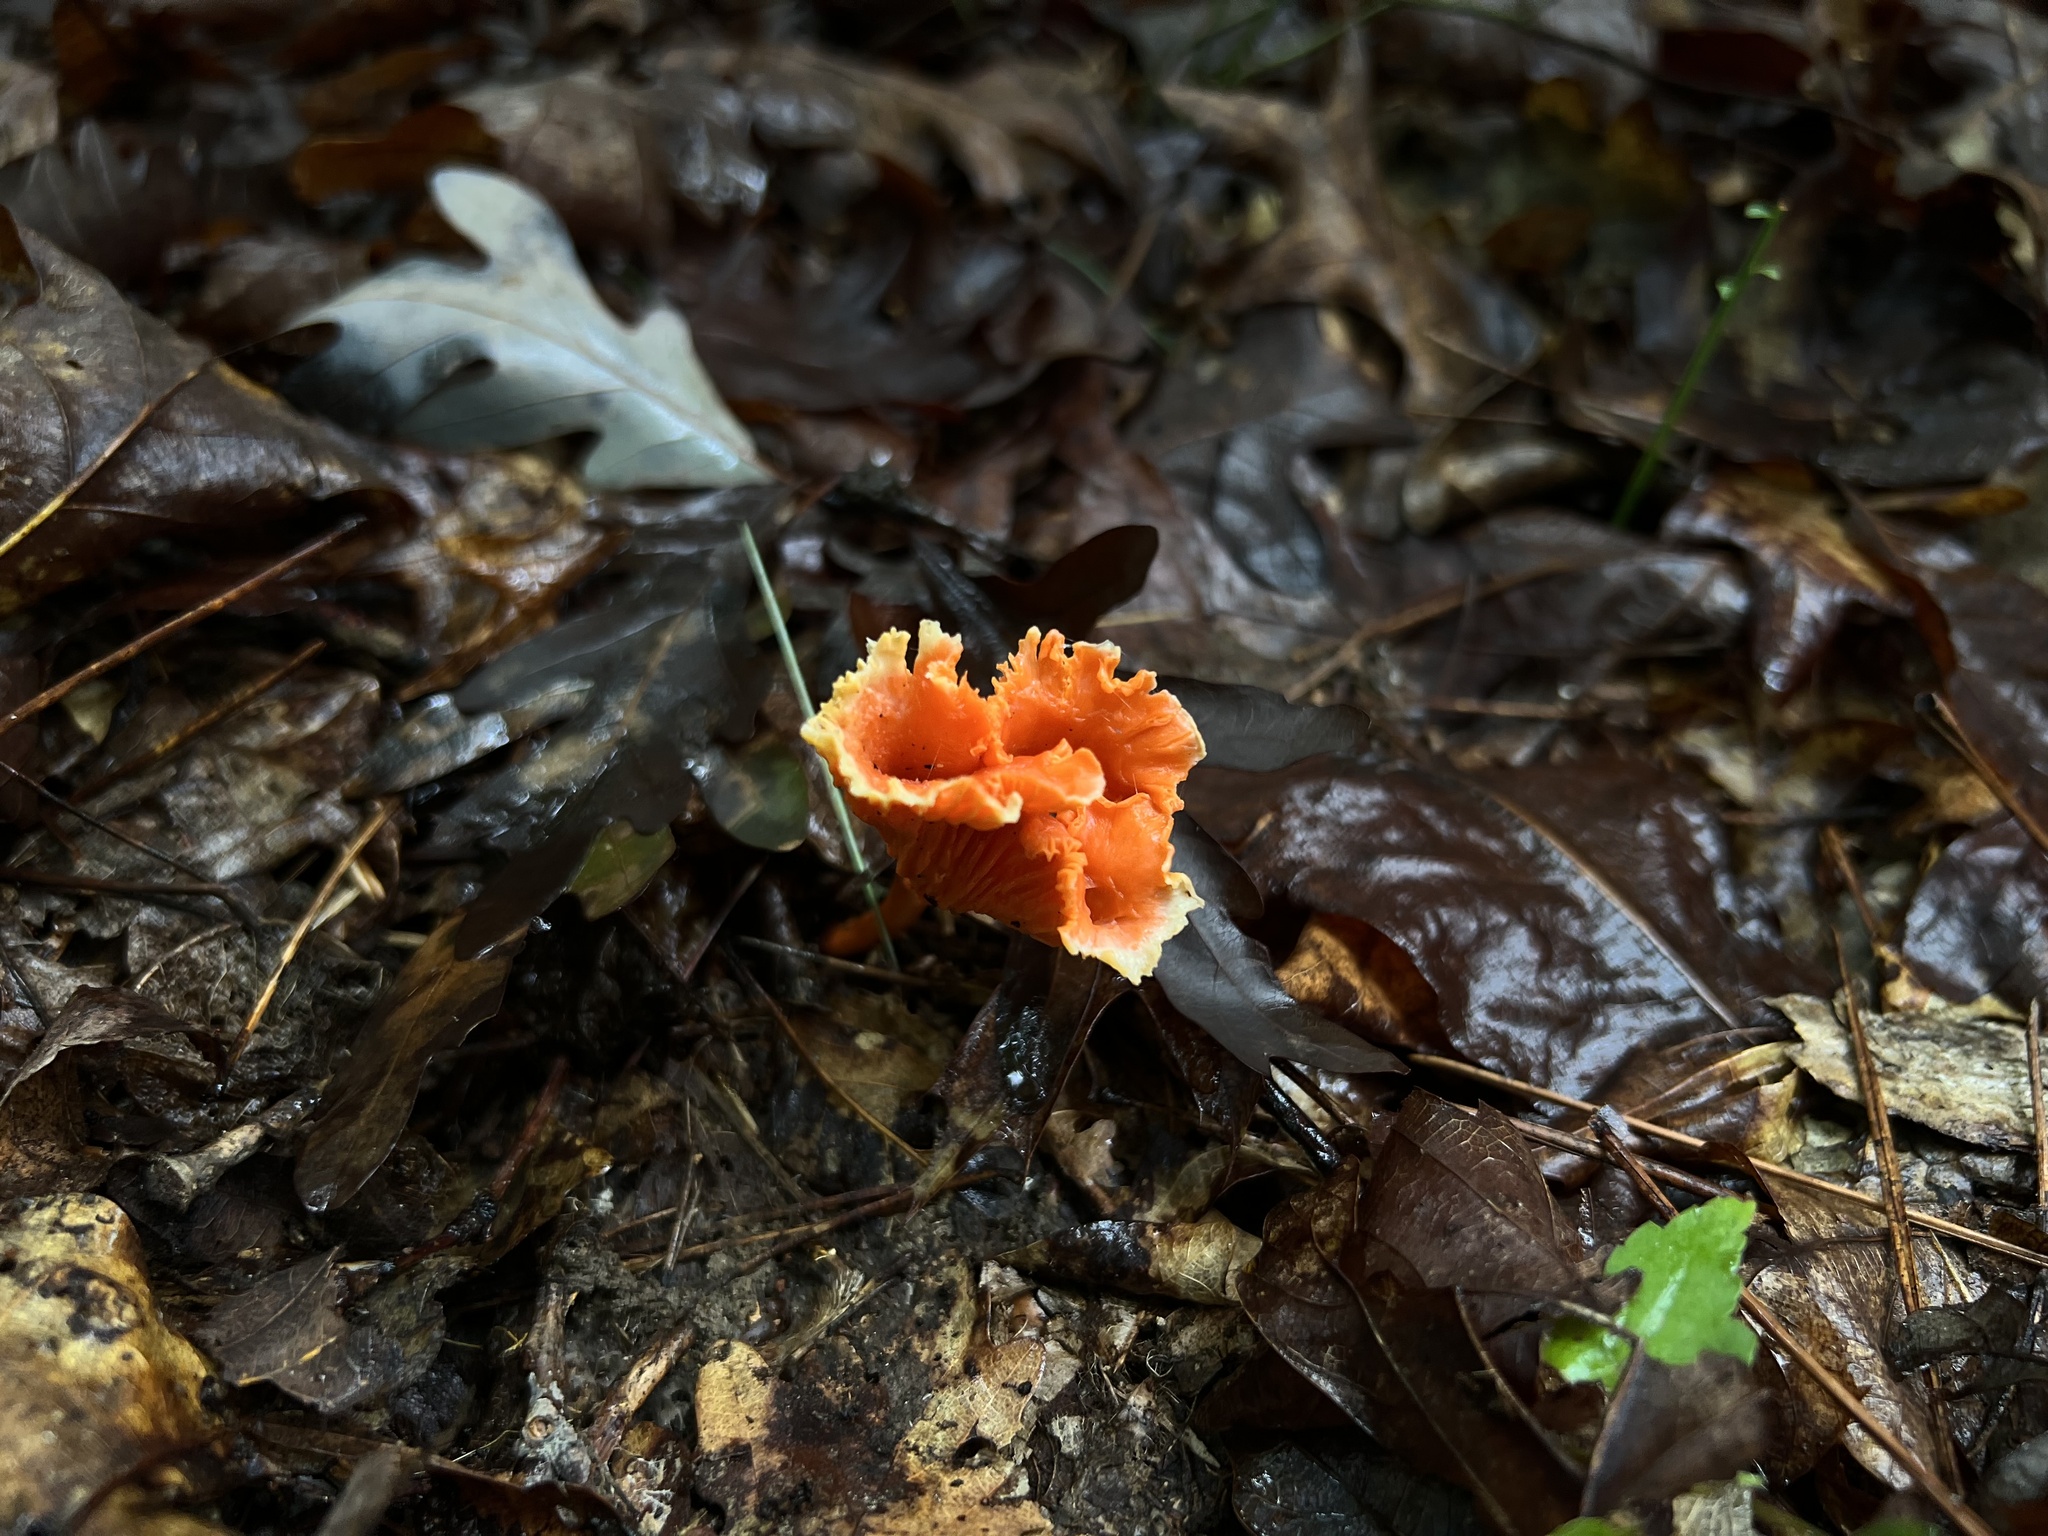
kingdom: Fungi
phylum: Basidiomycota
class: Agaricomycetes
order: Cantharellales
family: Hydnaceae
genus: Cantharellus
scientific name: Cantharellus cinnabarinus
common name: Cinnabar chanterelle
